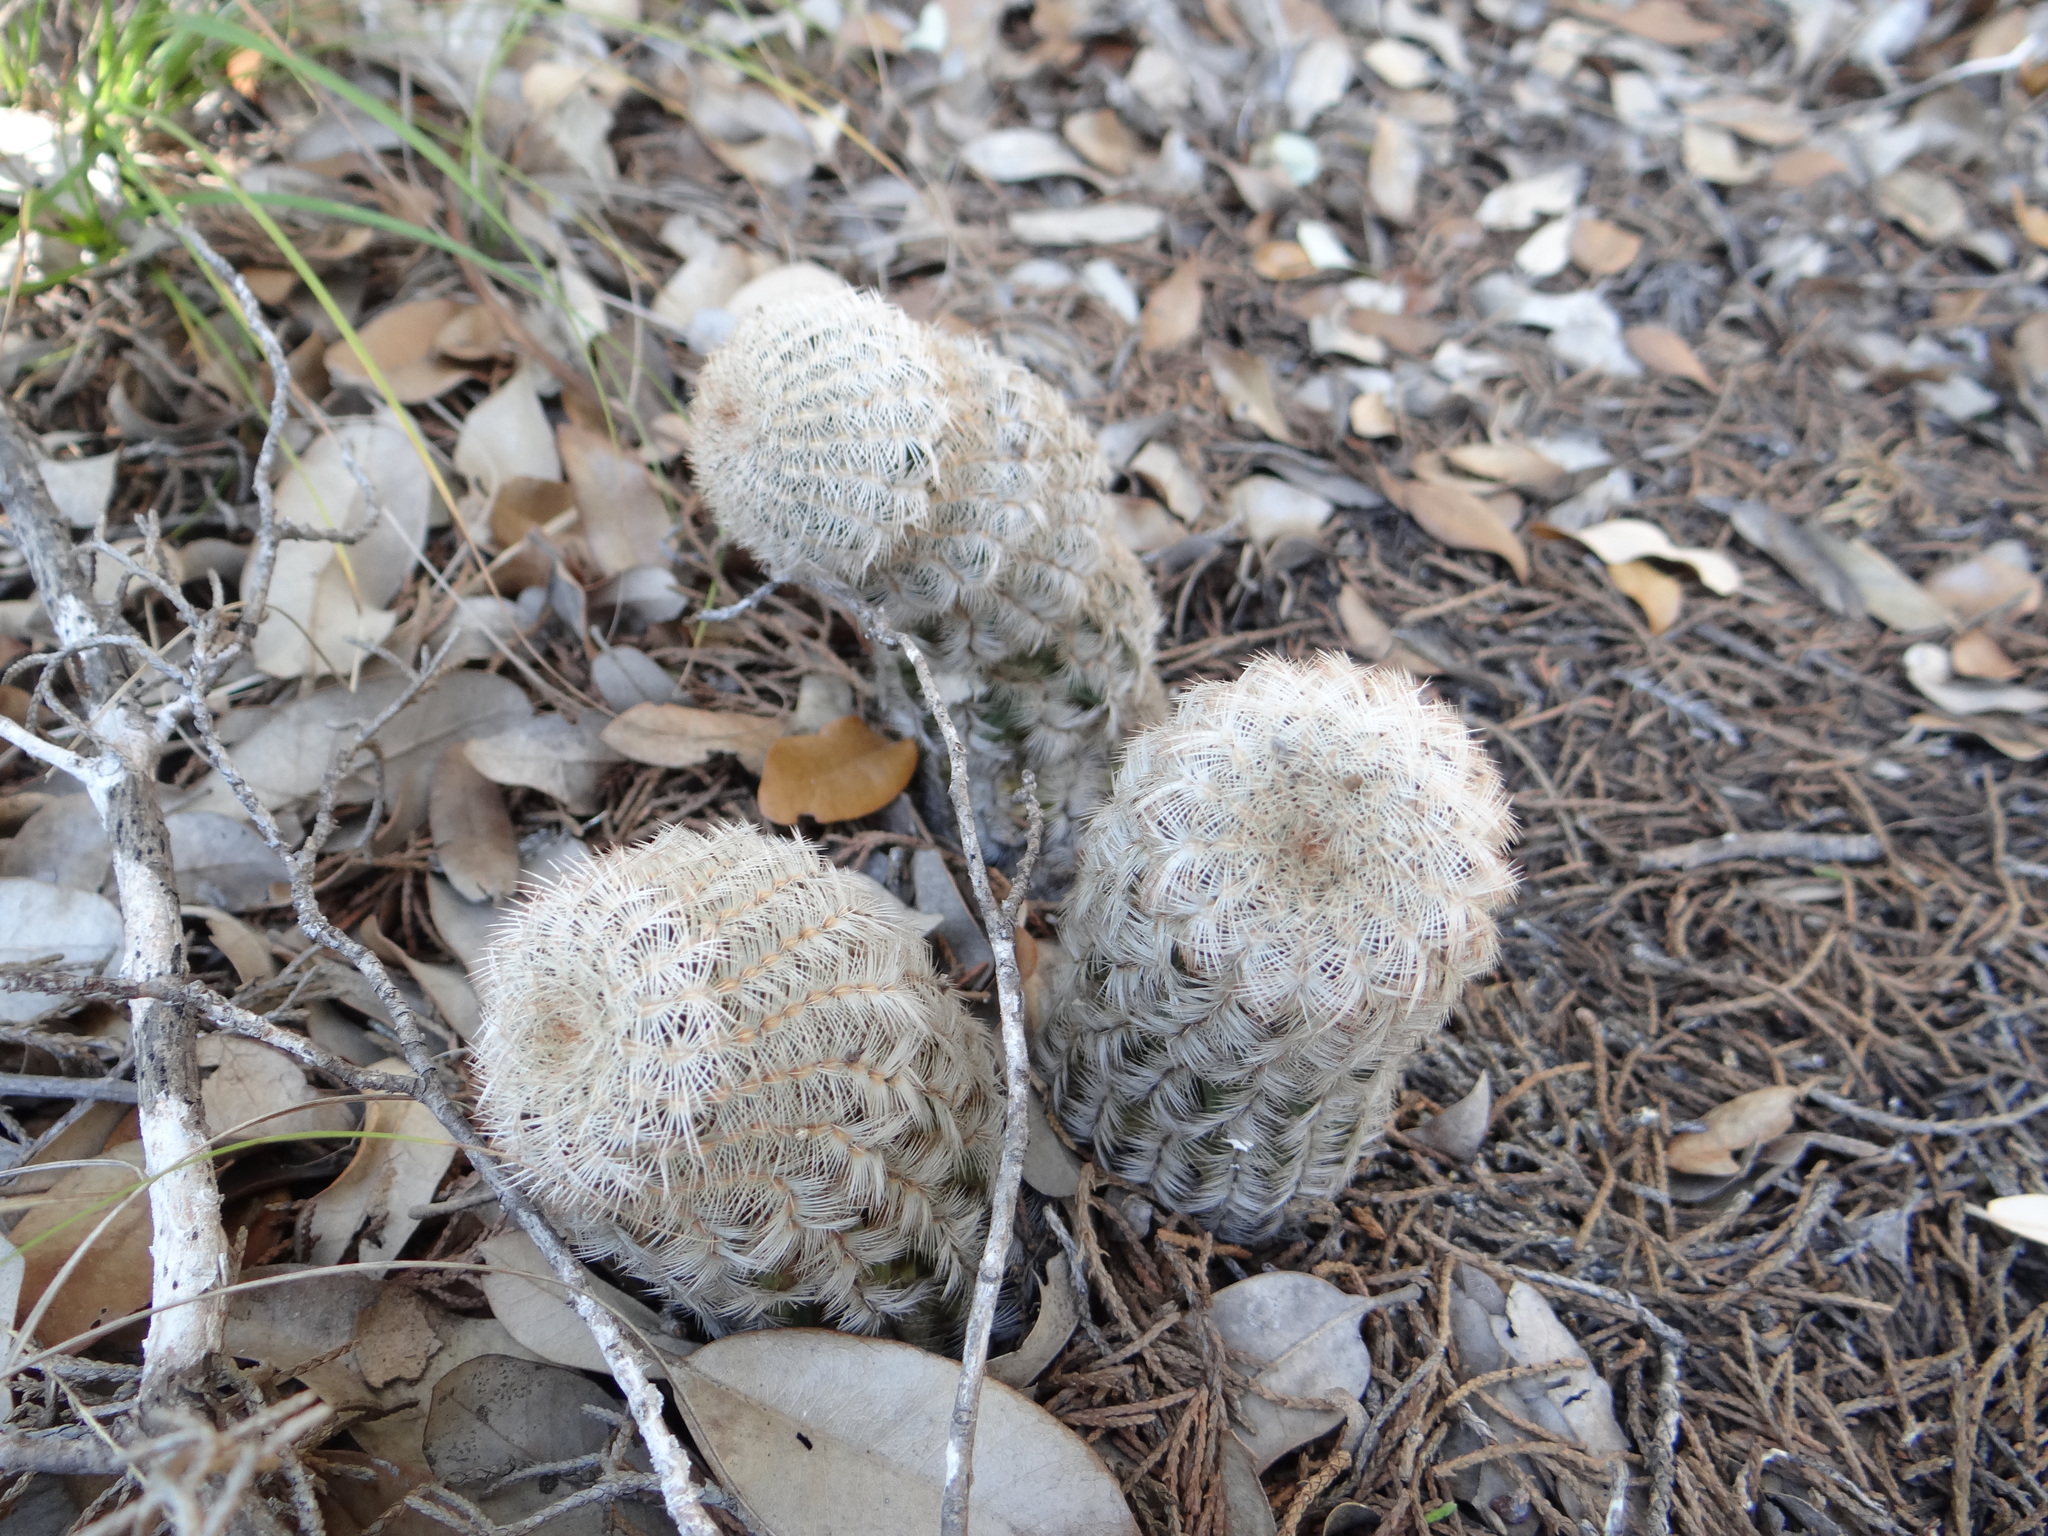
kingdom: Plantae
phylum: Tracheophyta
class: Magnoliopsida
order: Caryophyllales
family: Cactaceae
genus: Echinocereus
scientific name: Echinocereus reichenbachii
